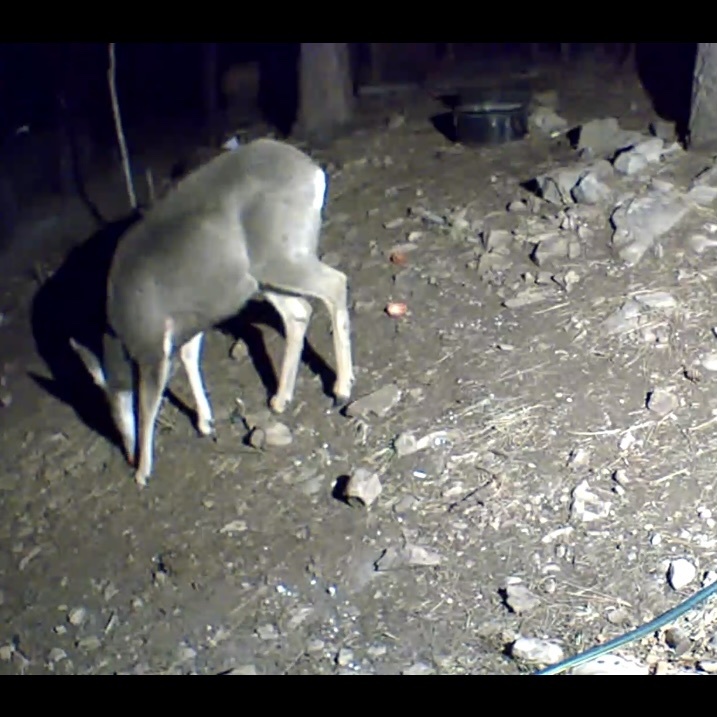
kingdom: Animalia
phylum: Chordata
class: Mammalia
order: Artiodactyla
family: Cervidae
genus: Odocoileus
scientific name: Odocoileus hemionus
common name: Mule deer
